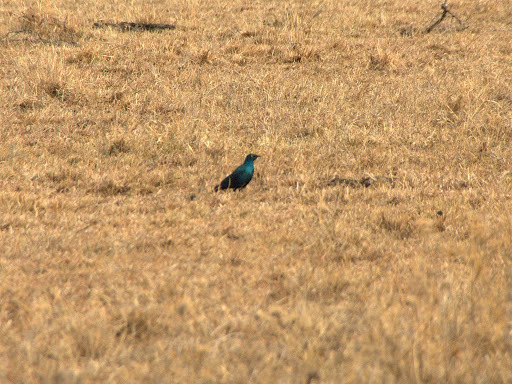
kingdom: Animalia
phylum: Chordata
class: Aves
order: Passeriformes
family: Sturnidae
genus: Lamprotornis
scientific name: Lamprotornis chalybaeus
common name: Greater blue-eared starling
